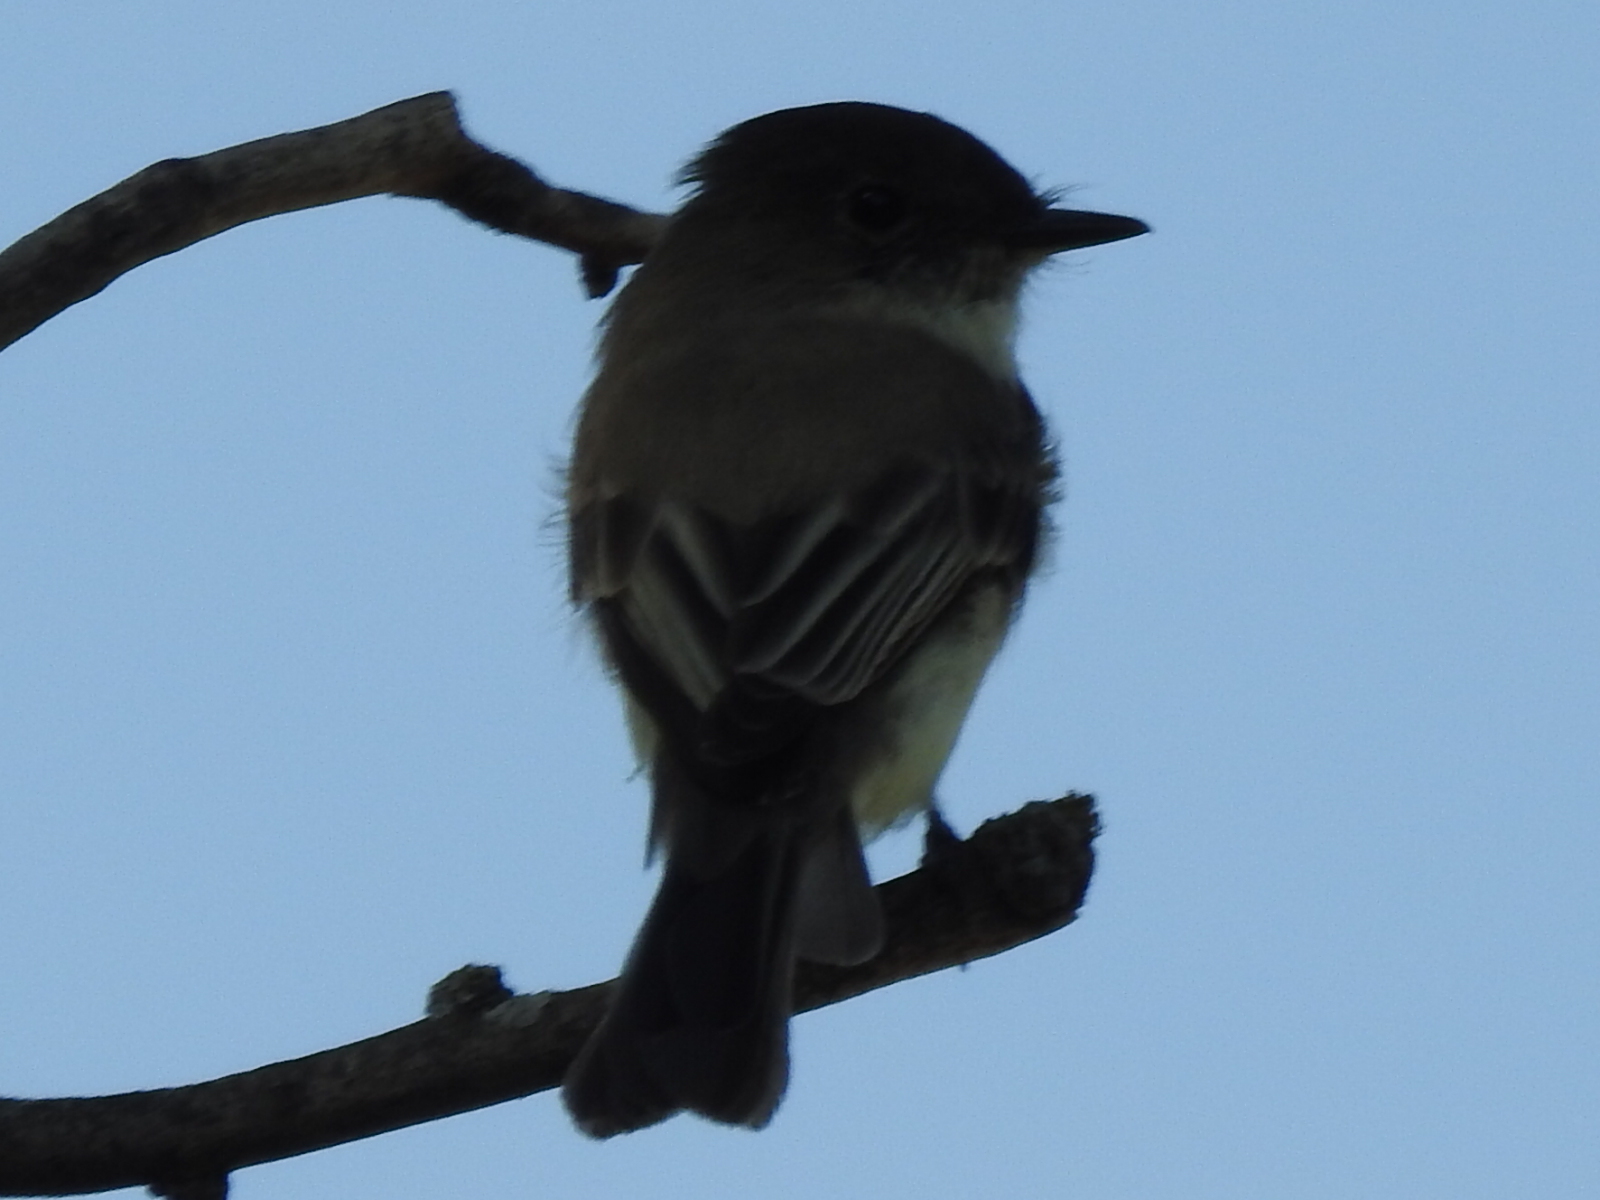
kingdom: Animalia
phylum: Chordata
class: Aves
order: Passeriformes
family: Tyrannidae
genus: Sayornis
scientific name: Sayornis phoebe
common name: Eastern phoebe
